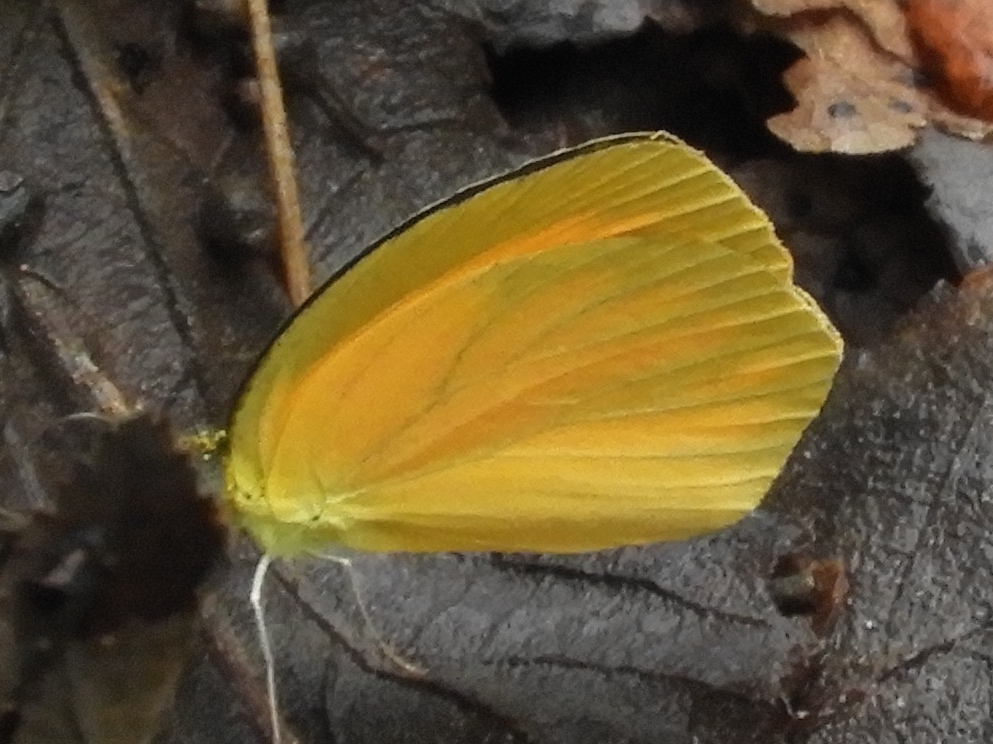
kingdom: Animalia
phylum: Arthropoda
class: Insecta
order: Lepidoptera
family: Pieridae
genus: Pyrisitia
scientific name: Pyrisitia proterpia
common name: Tailed orange
